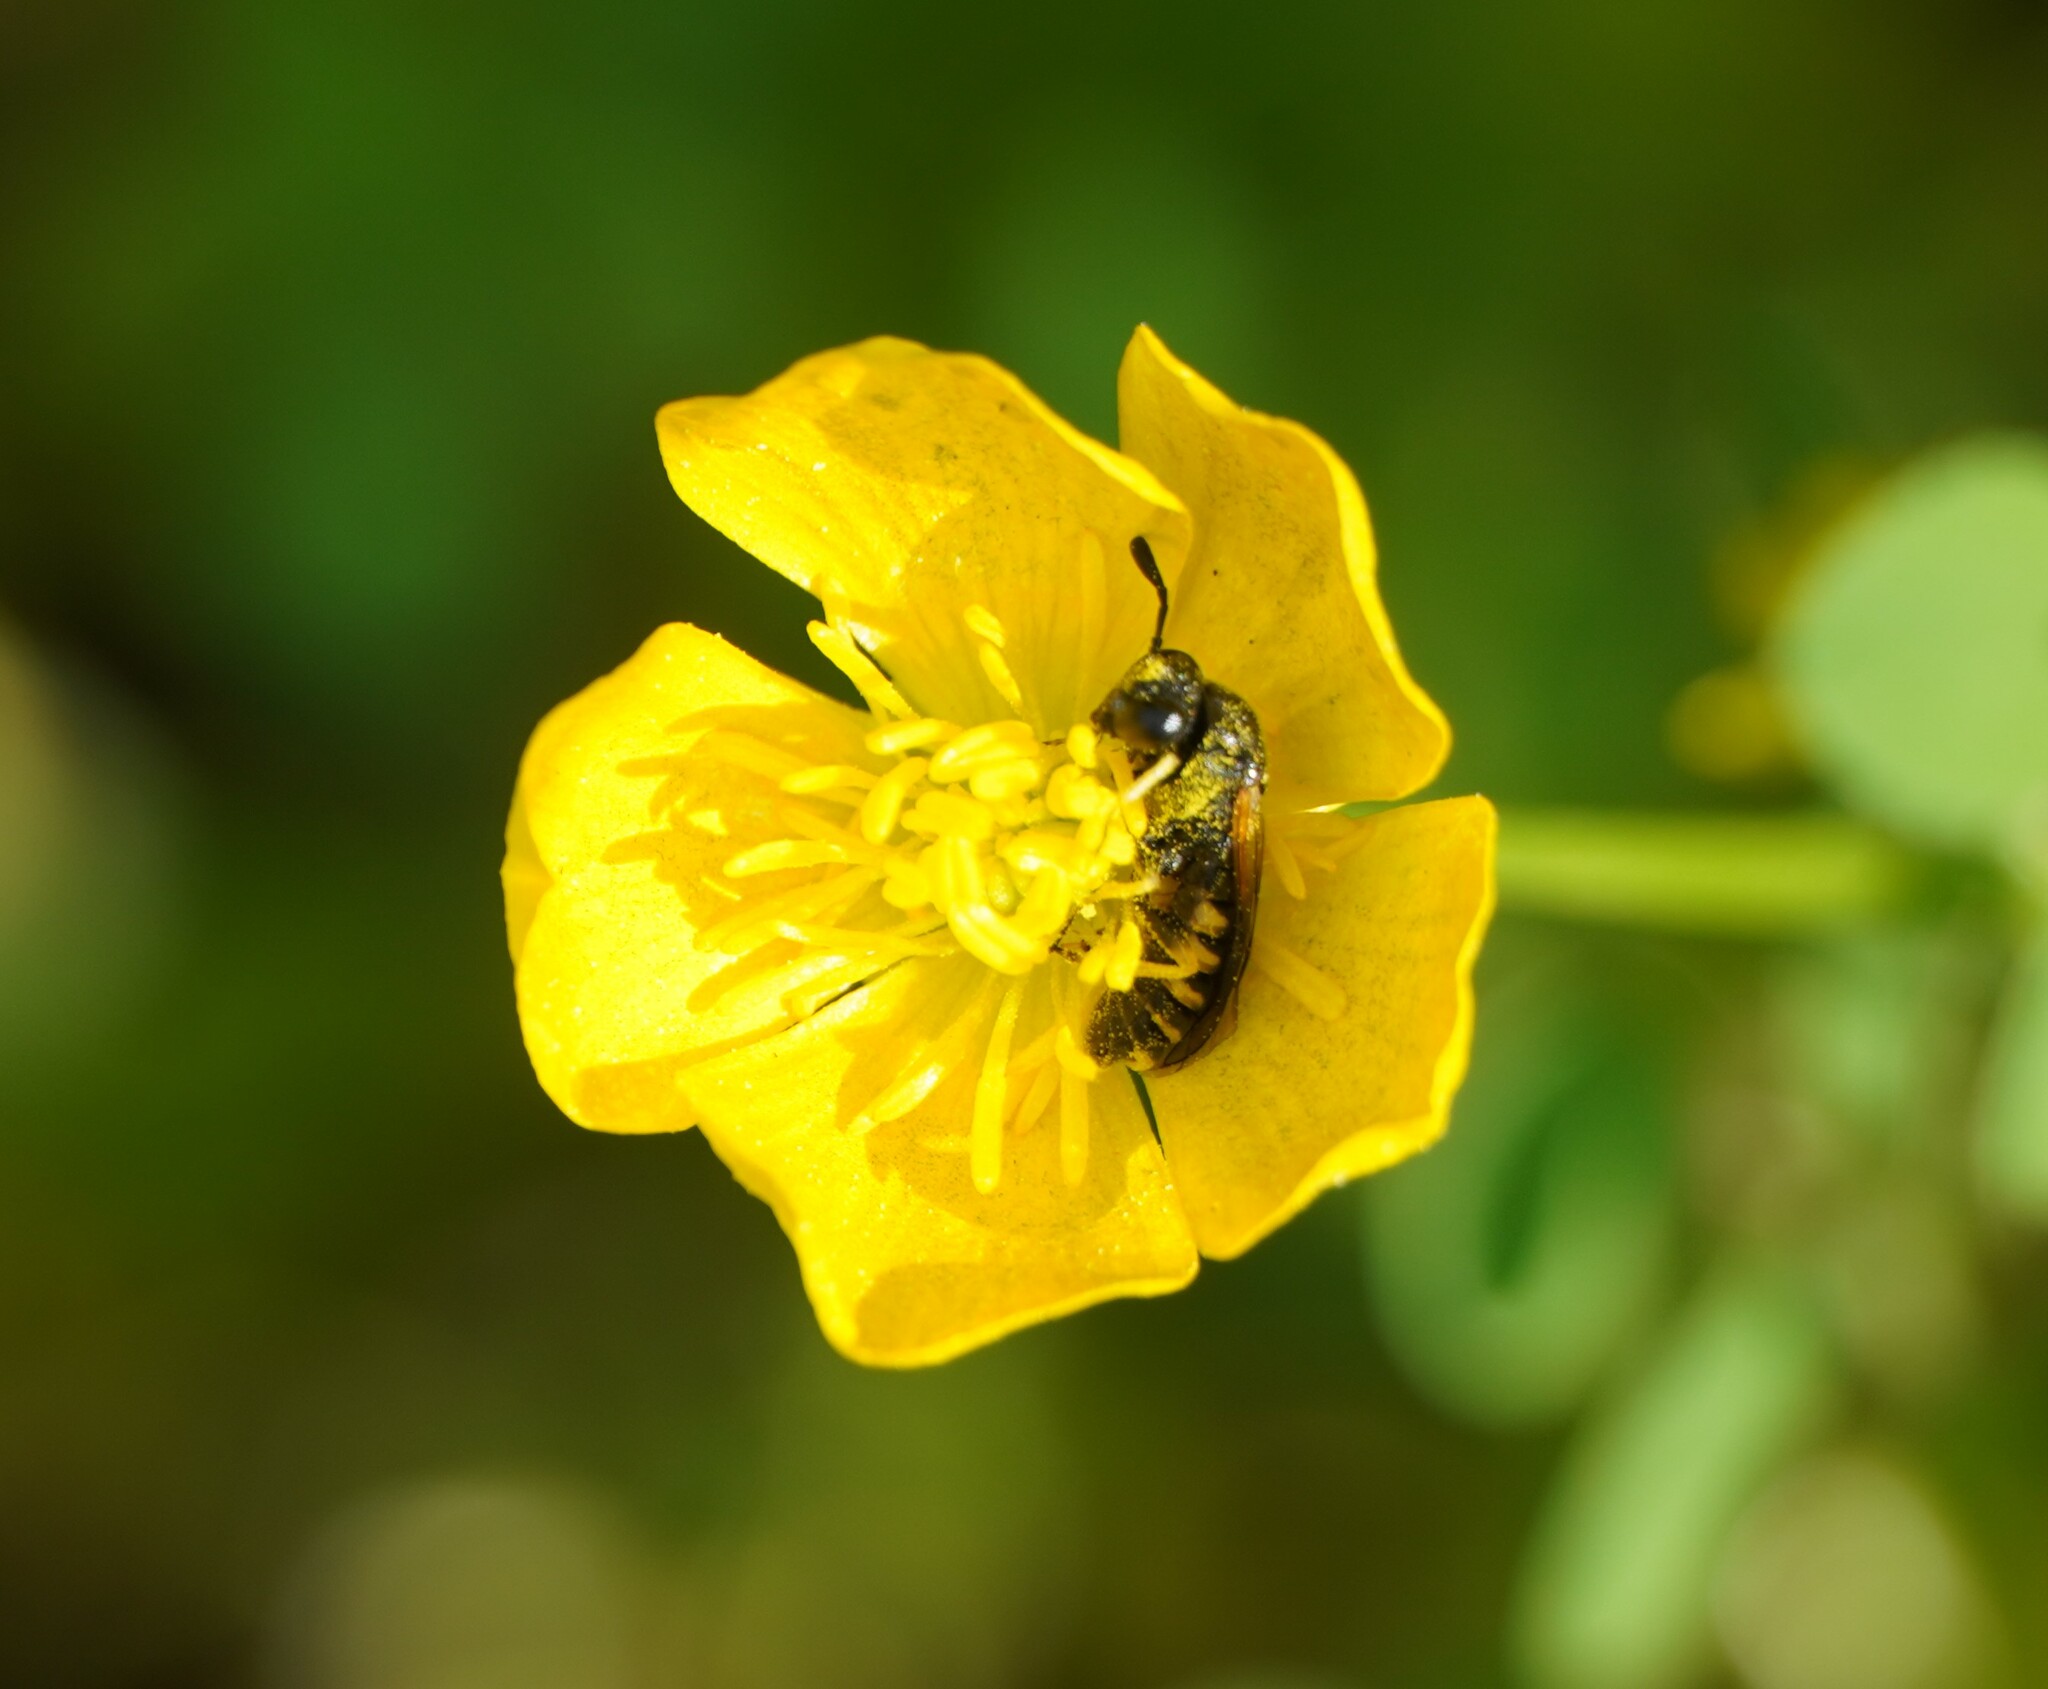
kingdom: Animalia
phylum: Arthropoda
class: Insecta
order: Hymenoptera
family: Cimbicidae
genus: Corynis
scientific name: Corynis crassicornis
